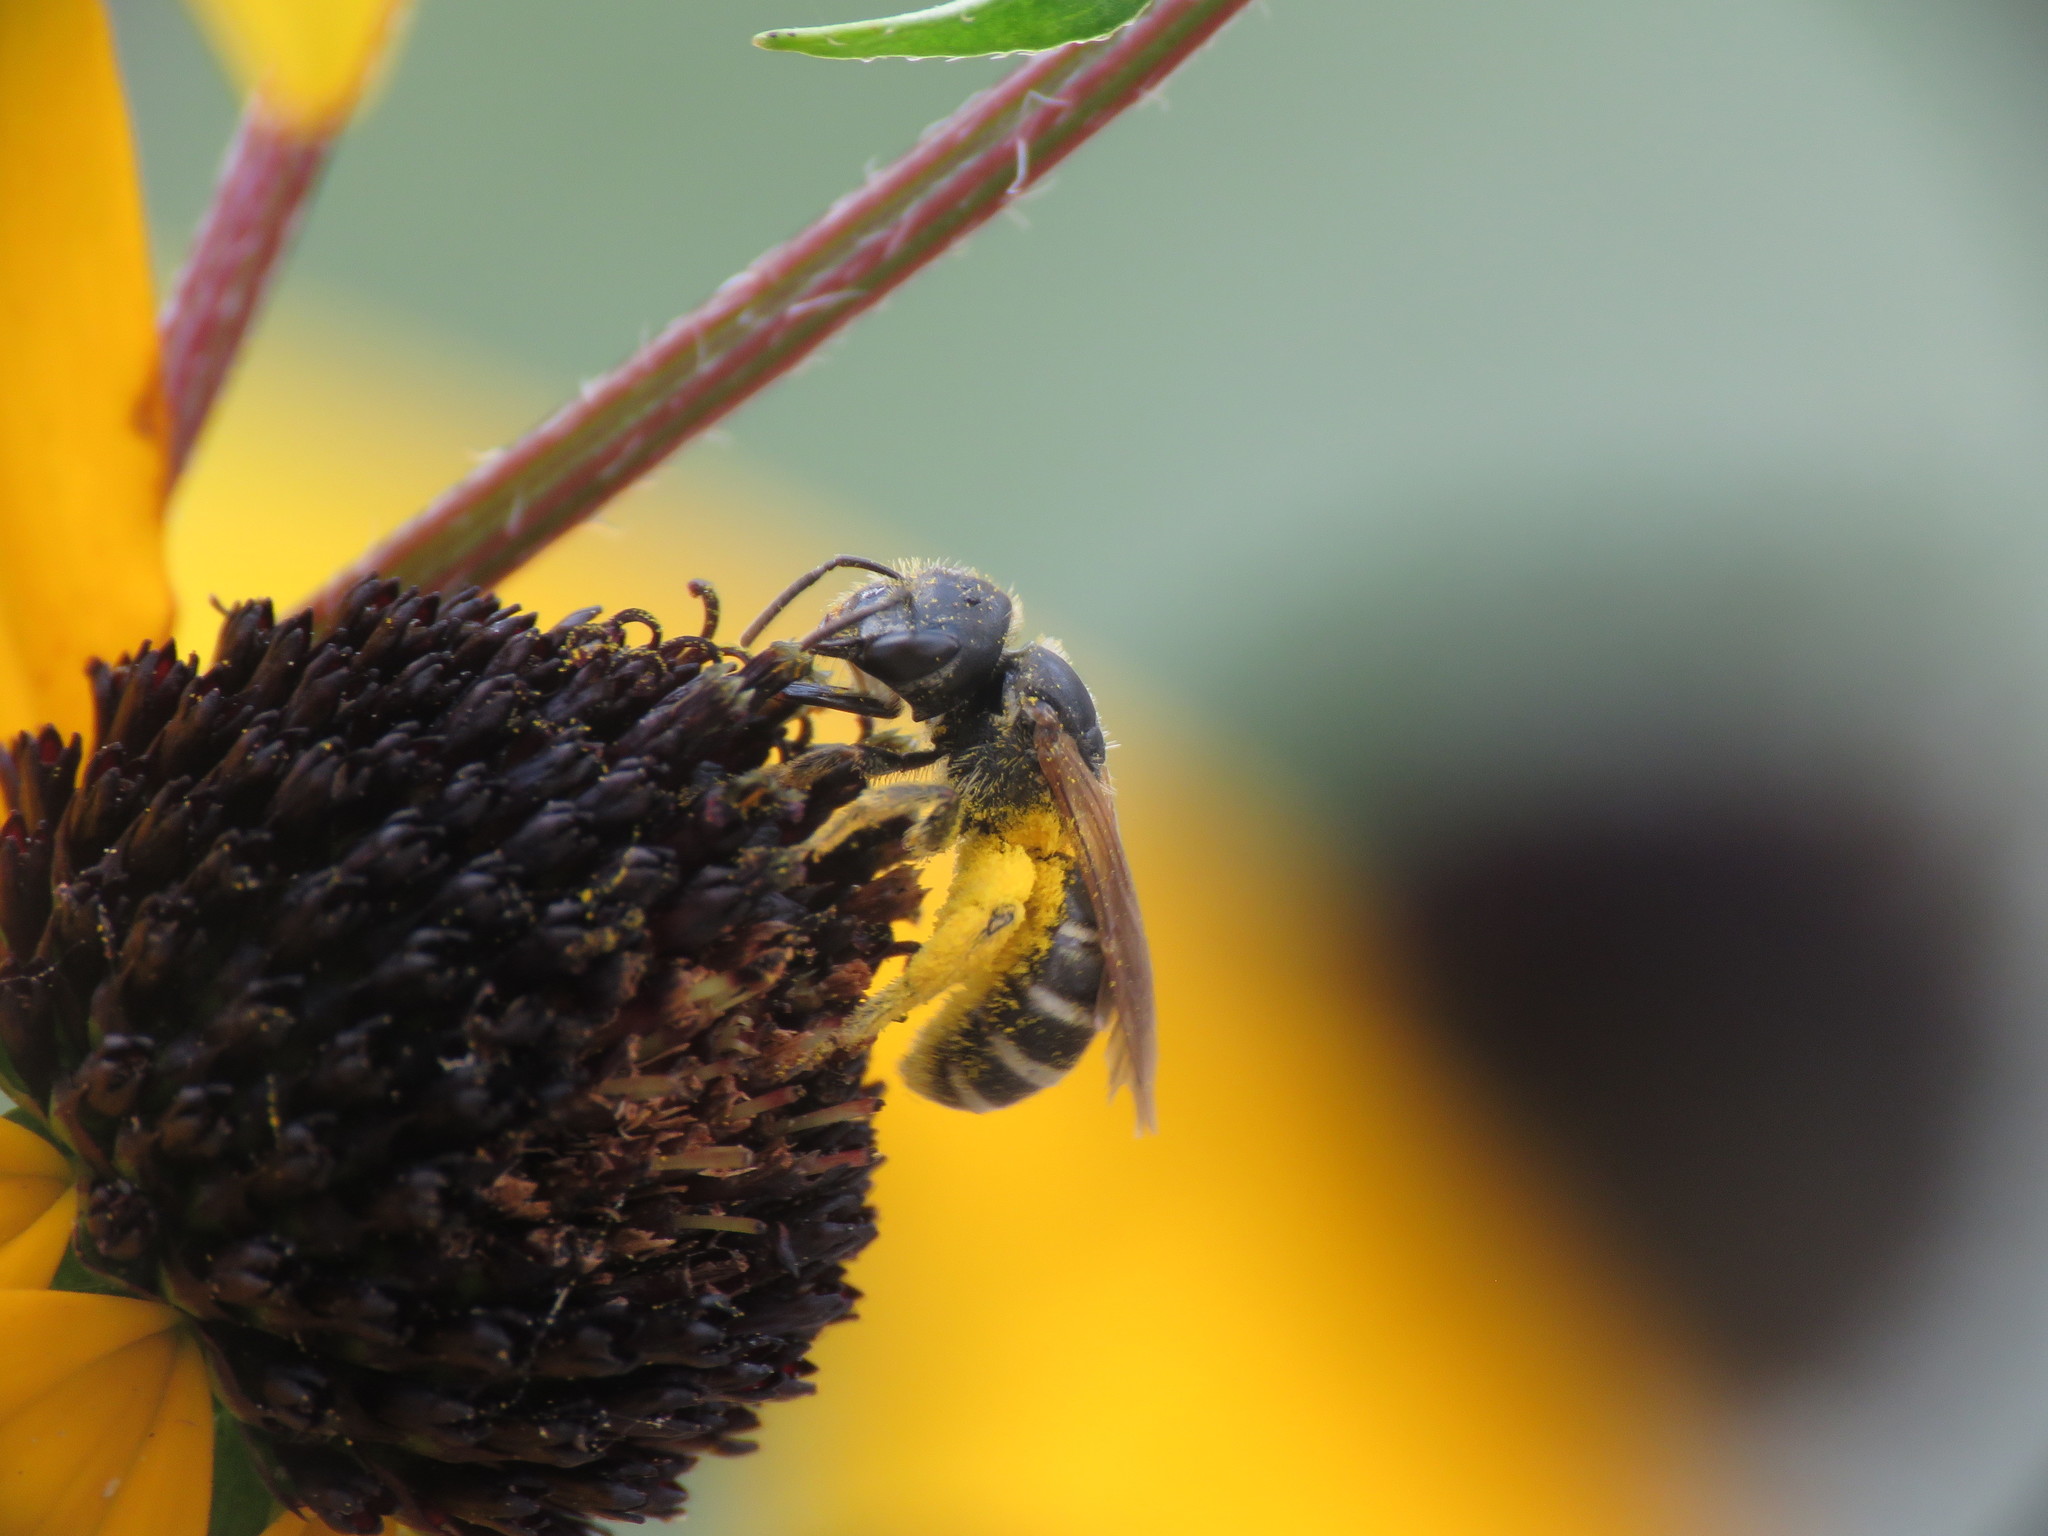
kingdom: Animalia
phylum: Arthropoda
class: Insecta
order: Hymenoptera
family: Halictidae
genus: Halictus
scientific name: Halictus ligatus
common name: Ligated furrow bee
